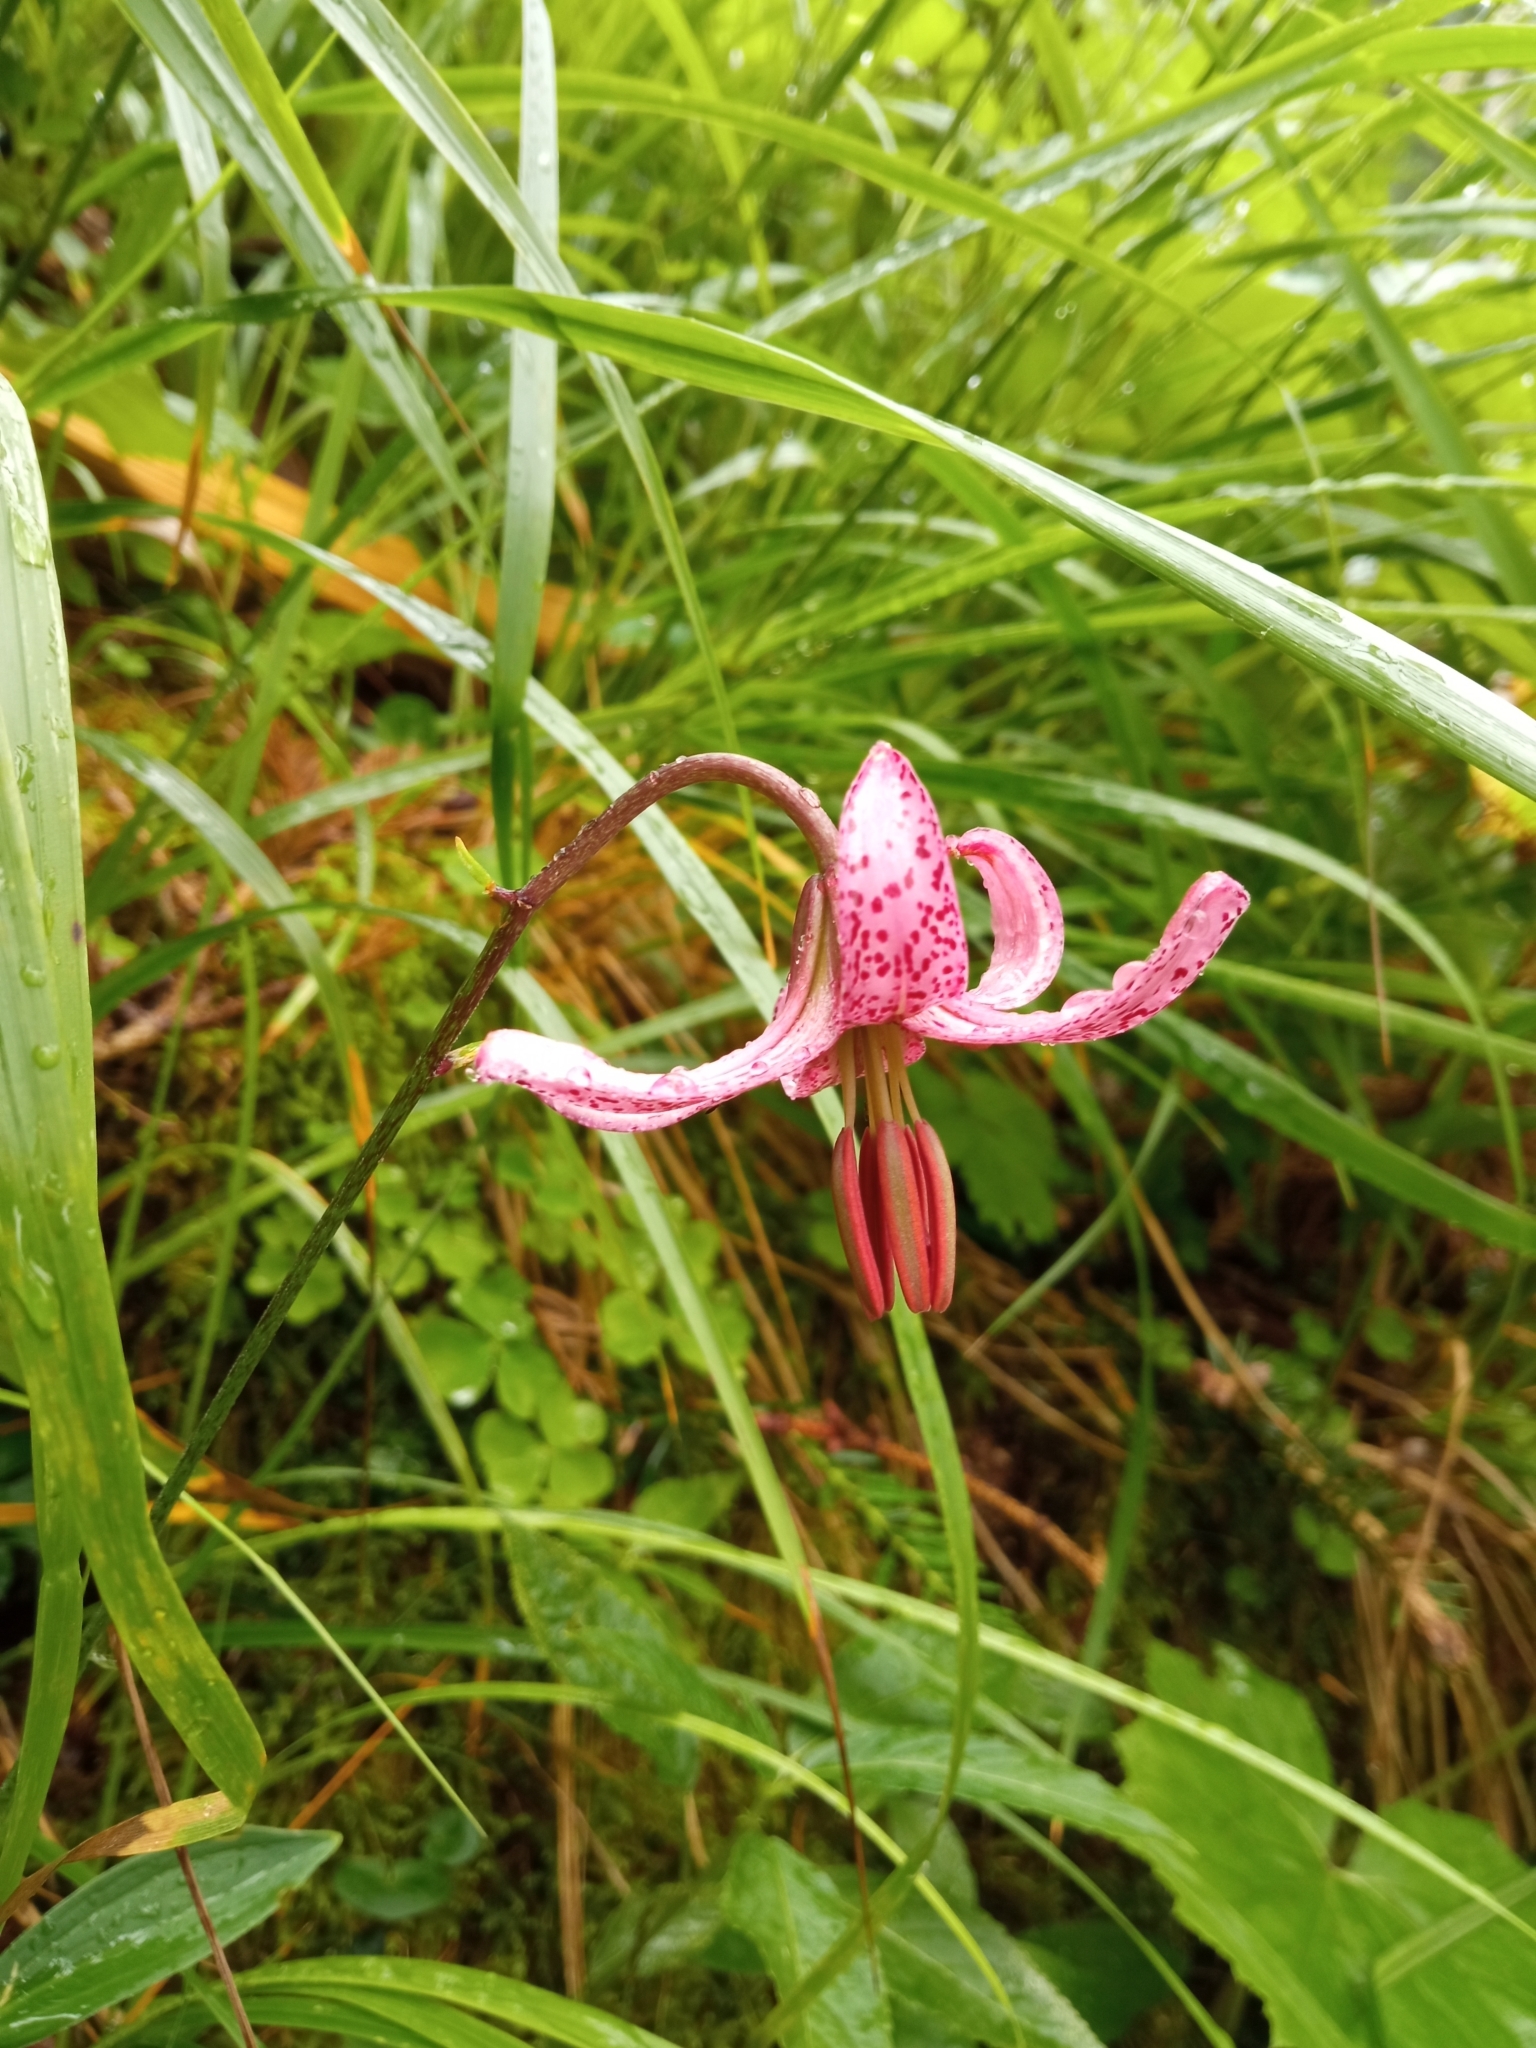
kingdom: Plantae
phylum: Tracheophyta
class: Liliopsida
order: Liliales
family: Liliaceae
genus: Lilium
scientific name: Lilium martagon
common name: Martagon lily
